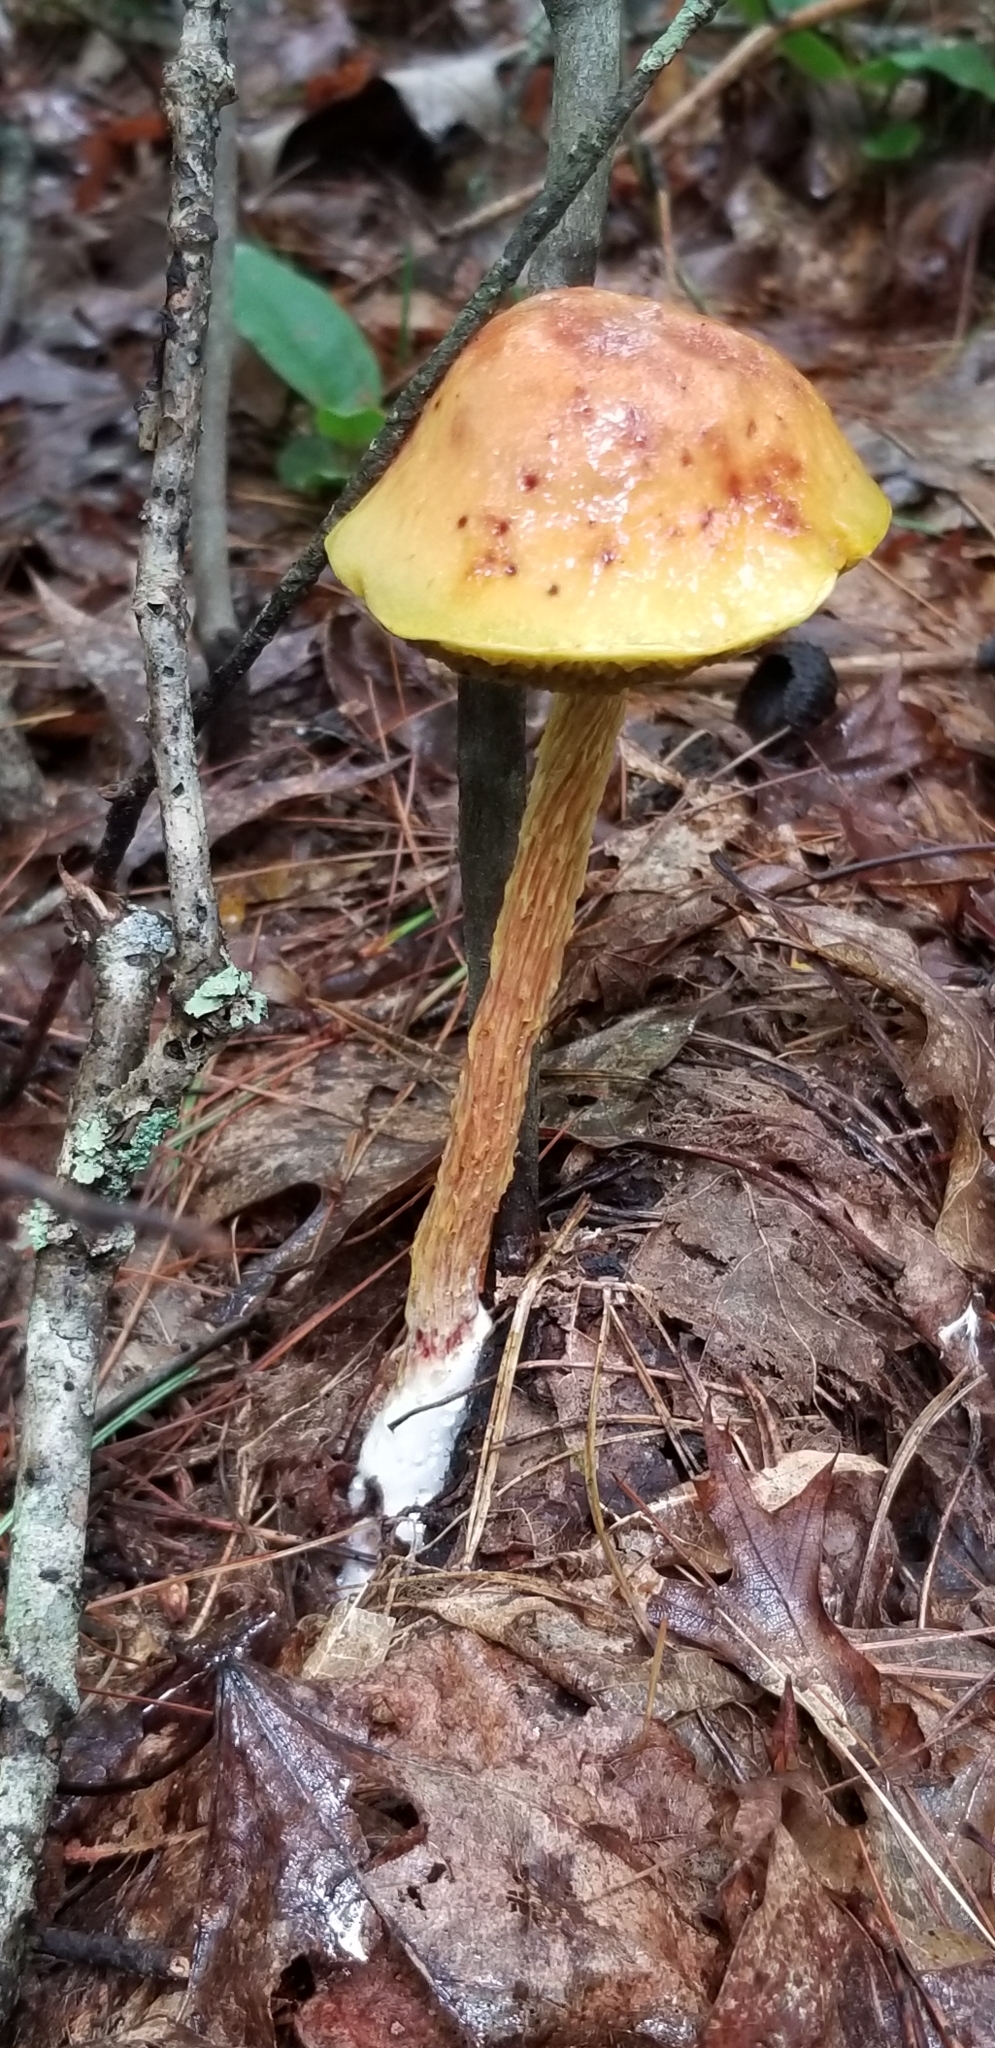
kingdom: Fungi
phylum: Basidiomycota
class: Agaricomycetes
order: Boletales
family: Boletaceae
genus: Aureoboletus
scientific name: Aureoboletus betula
